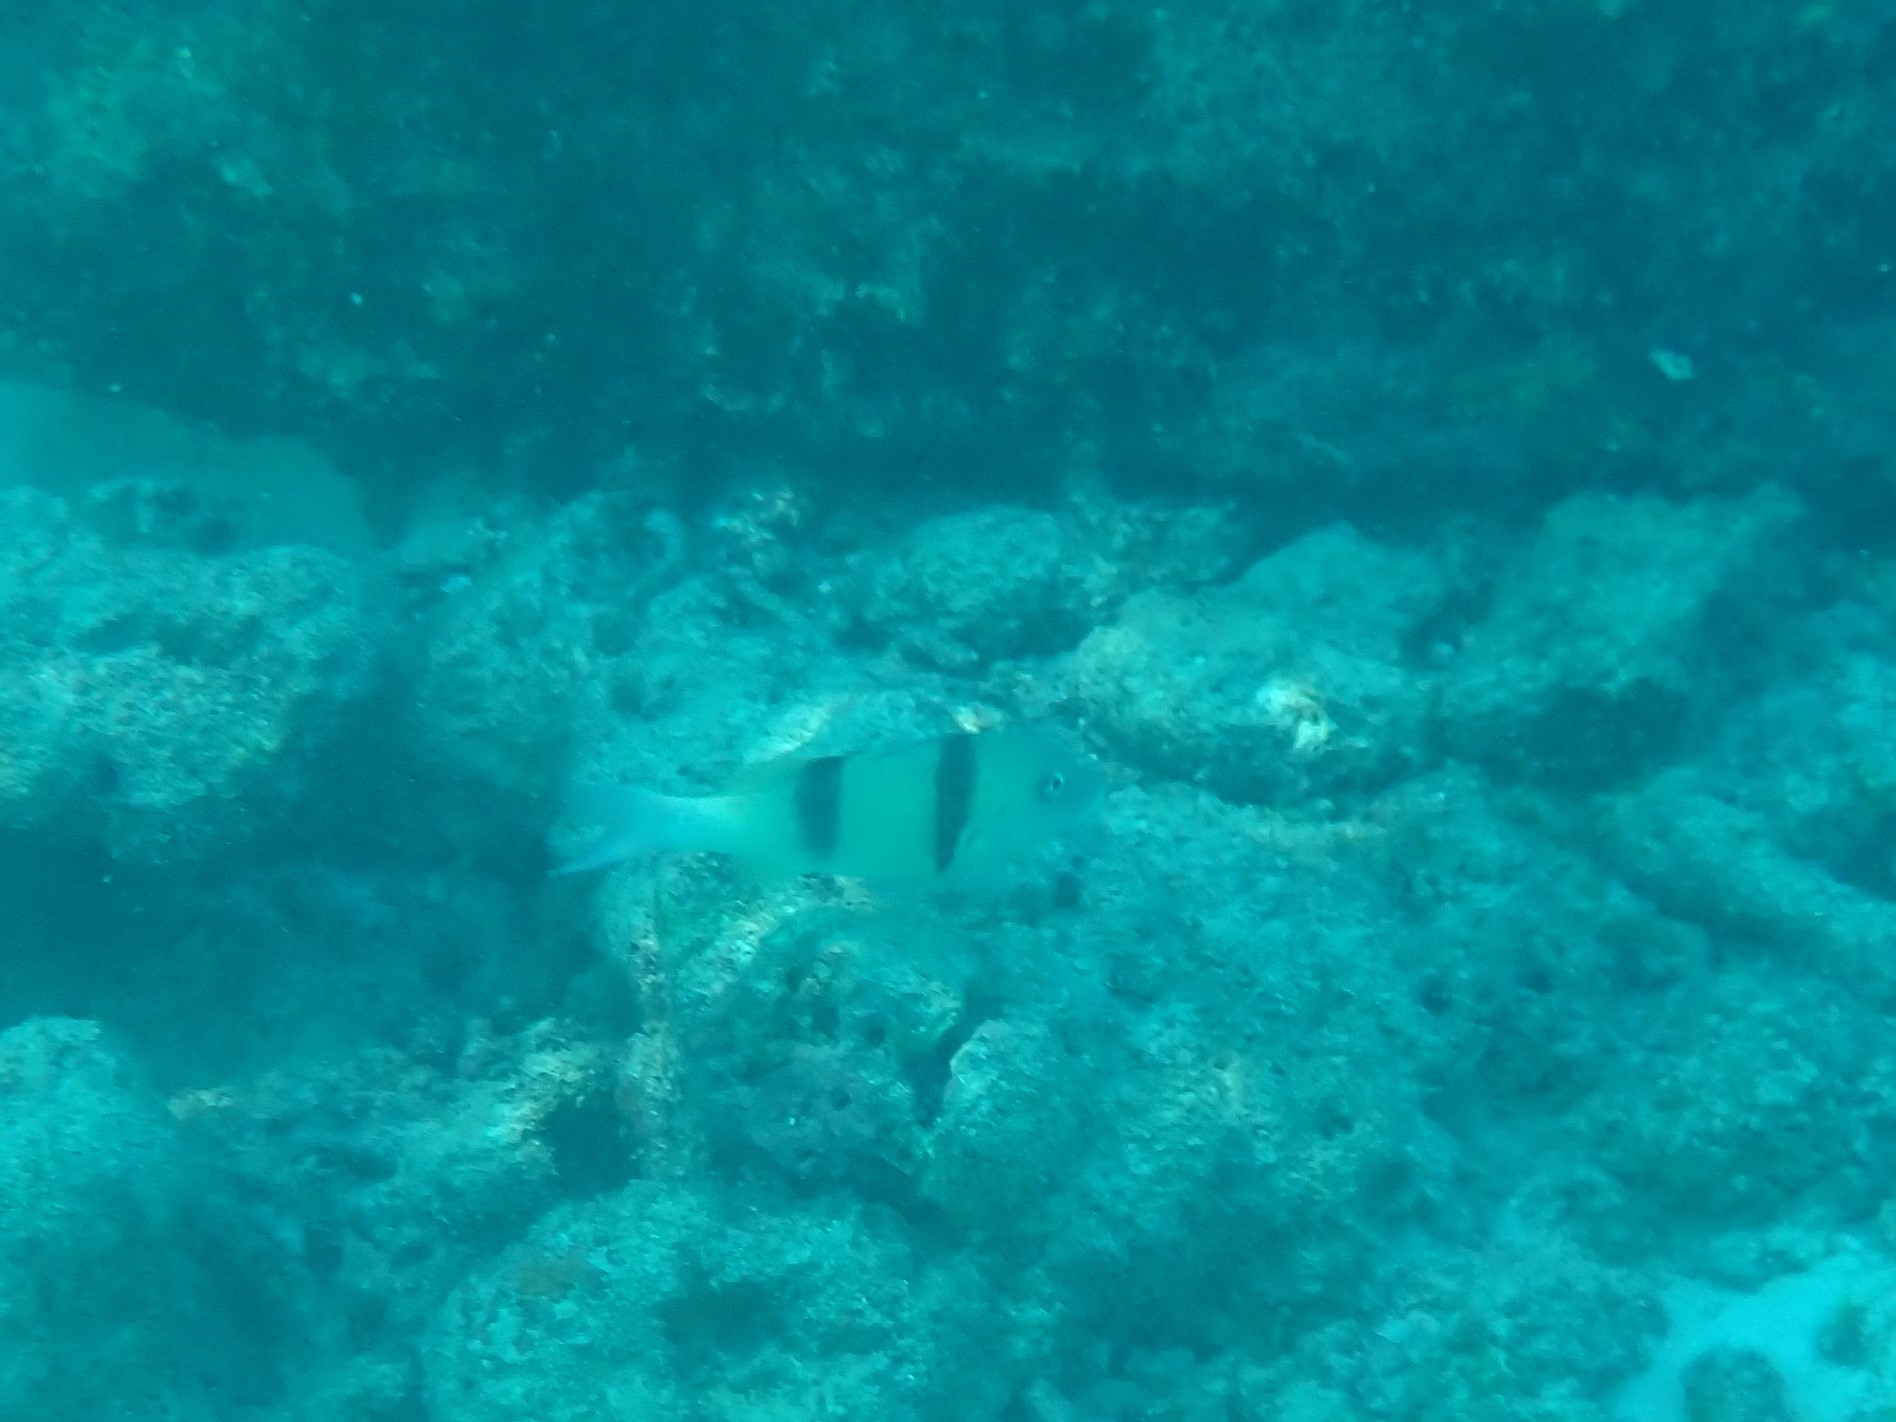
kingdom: Animalia
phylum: Chordata
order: Perciformes
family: Mullidae
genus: Parupeneus
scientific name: Parupeneus trifasciatus
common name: Doublebar goatfish
